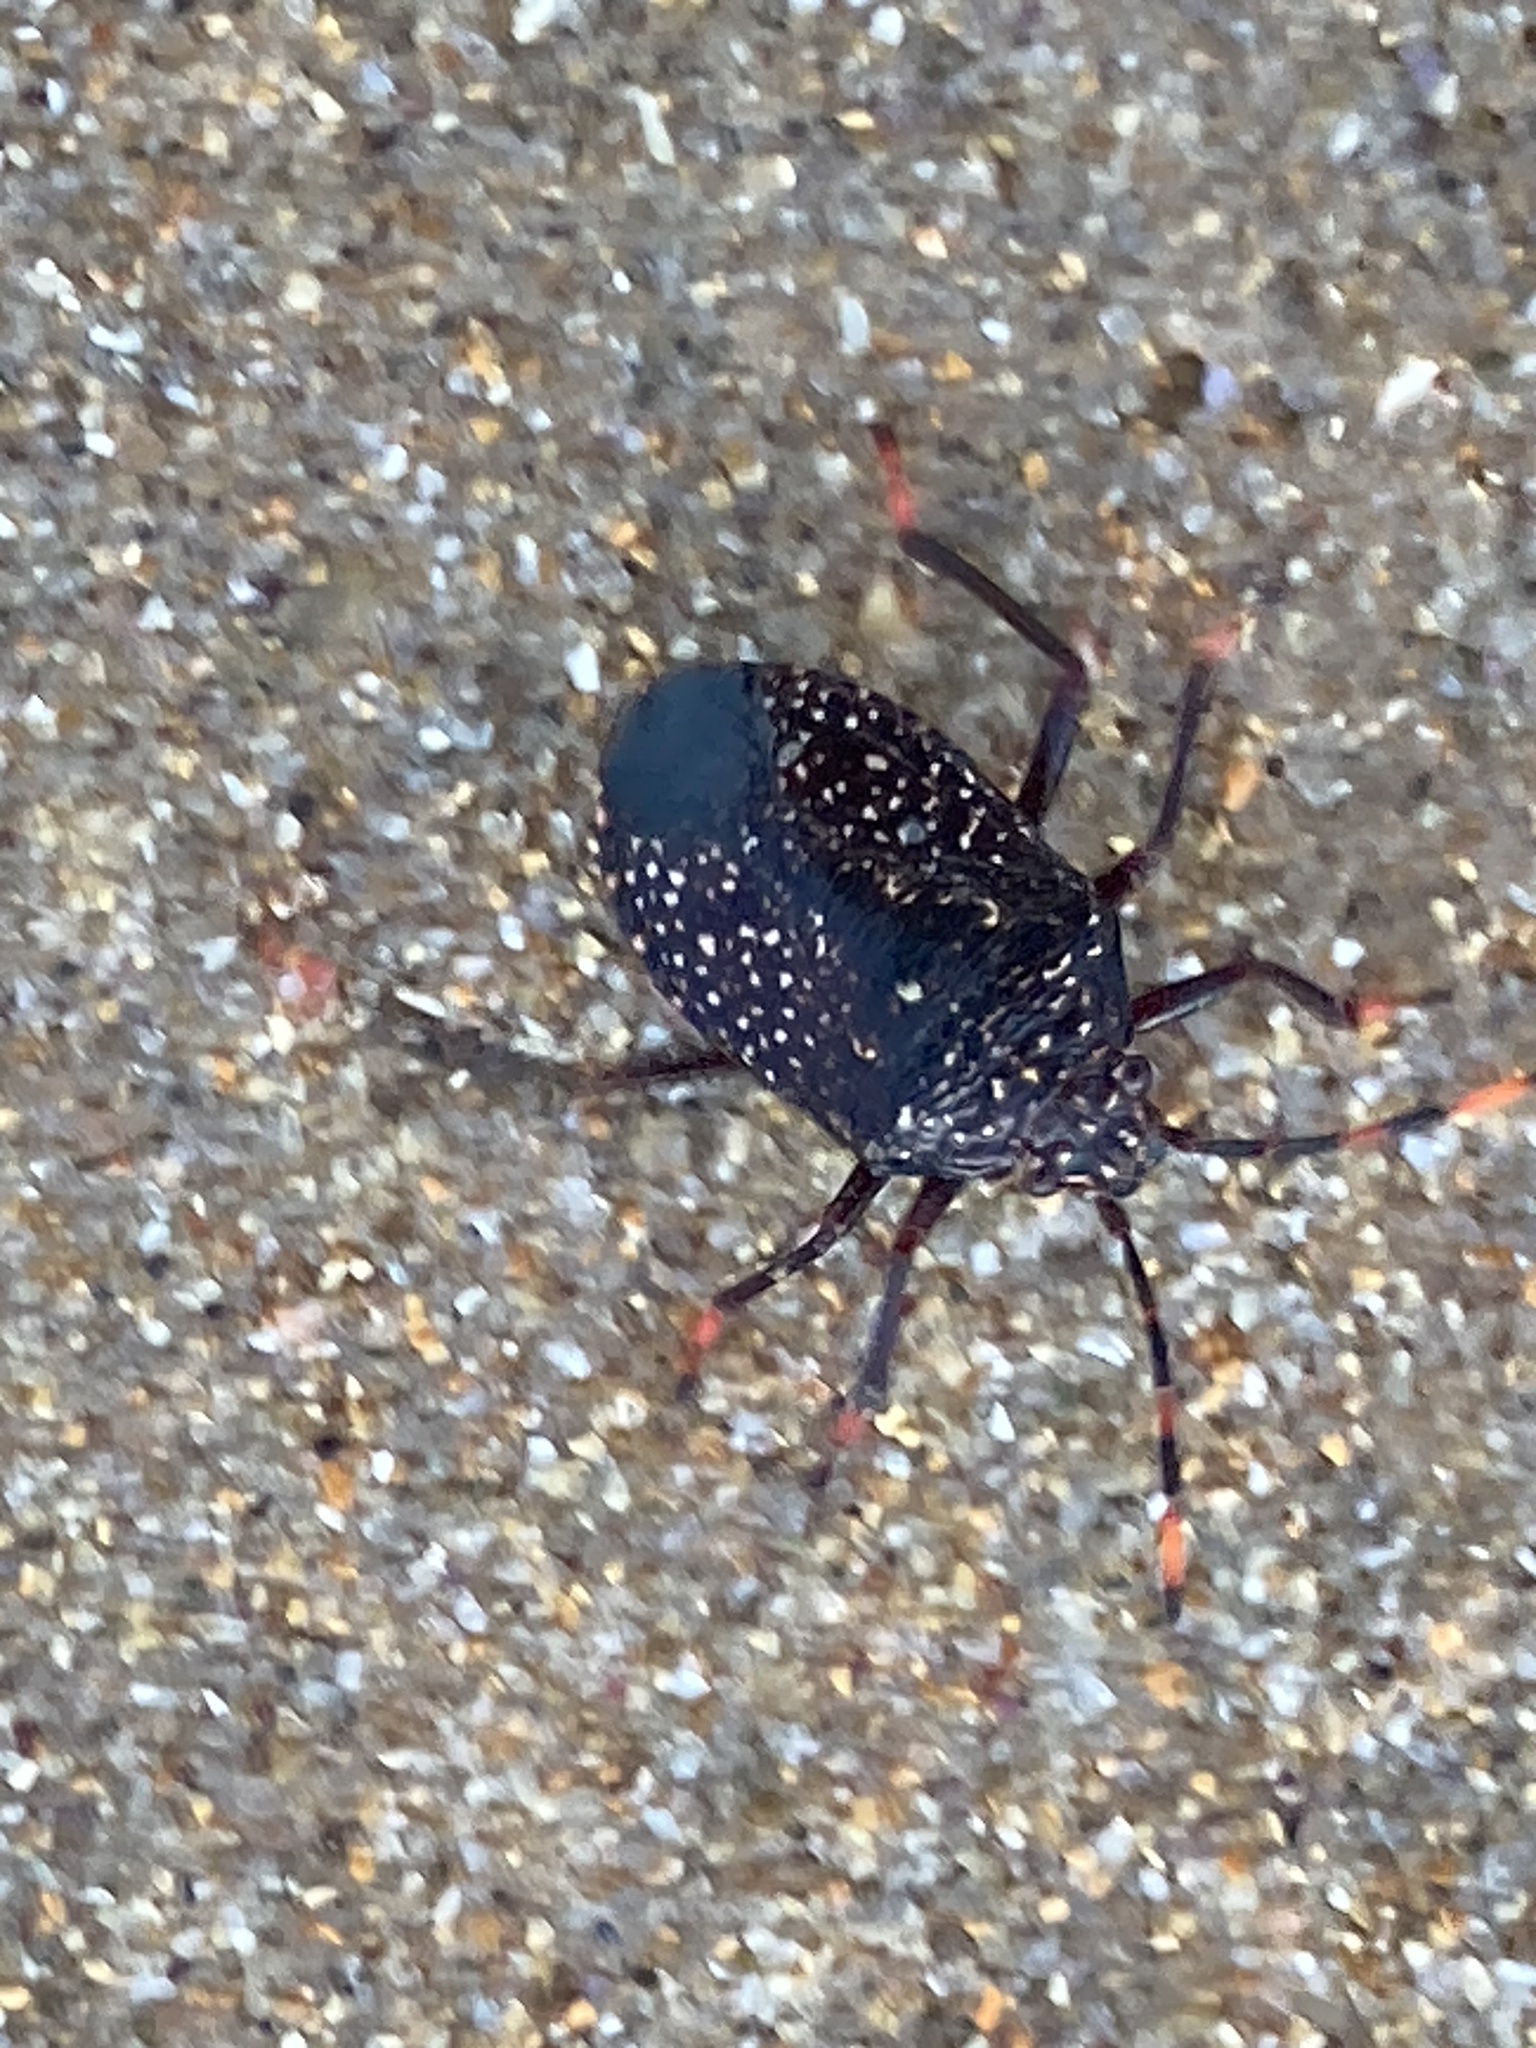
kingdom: Animalia
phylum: Arthropoda
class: Insecta
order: Hemiptera
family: Pentatomidae
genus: Notius
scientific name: Notius
